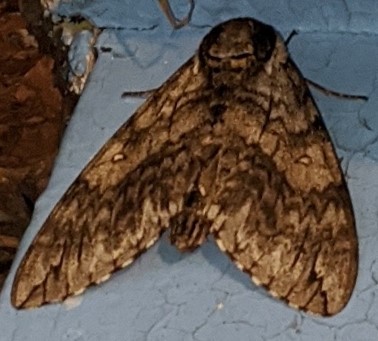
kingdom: Animalia
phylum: Arthropoda
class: Insecta
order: Lepidoptera
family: Sphingidae
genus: Ceratomia
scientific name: Ceratomia undulosa
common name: Waved sphinx
